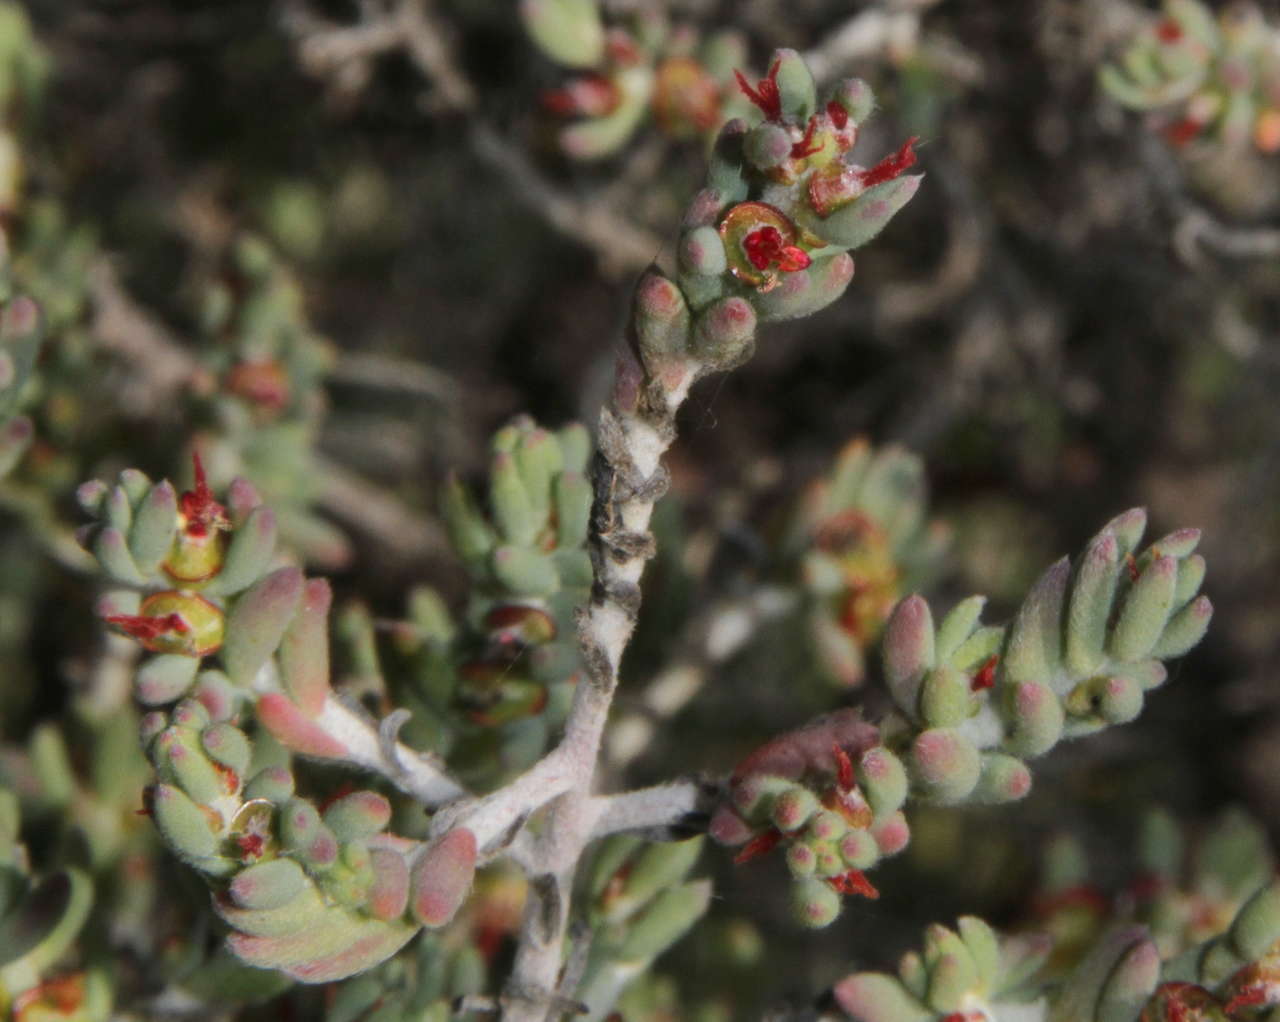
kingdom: Plantae
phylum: Tracheophyta
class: Magnoliopsida
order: Caryophyllales
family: Amaranthaceae
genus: Maireana
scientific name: Maireana georgei
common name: Satiny bluebush
